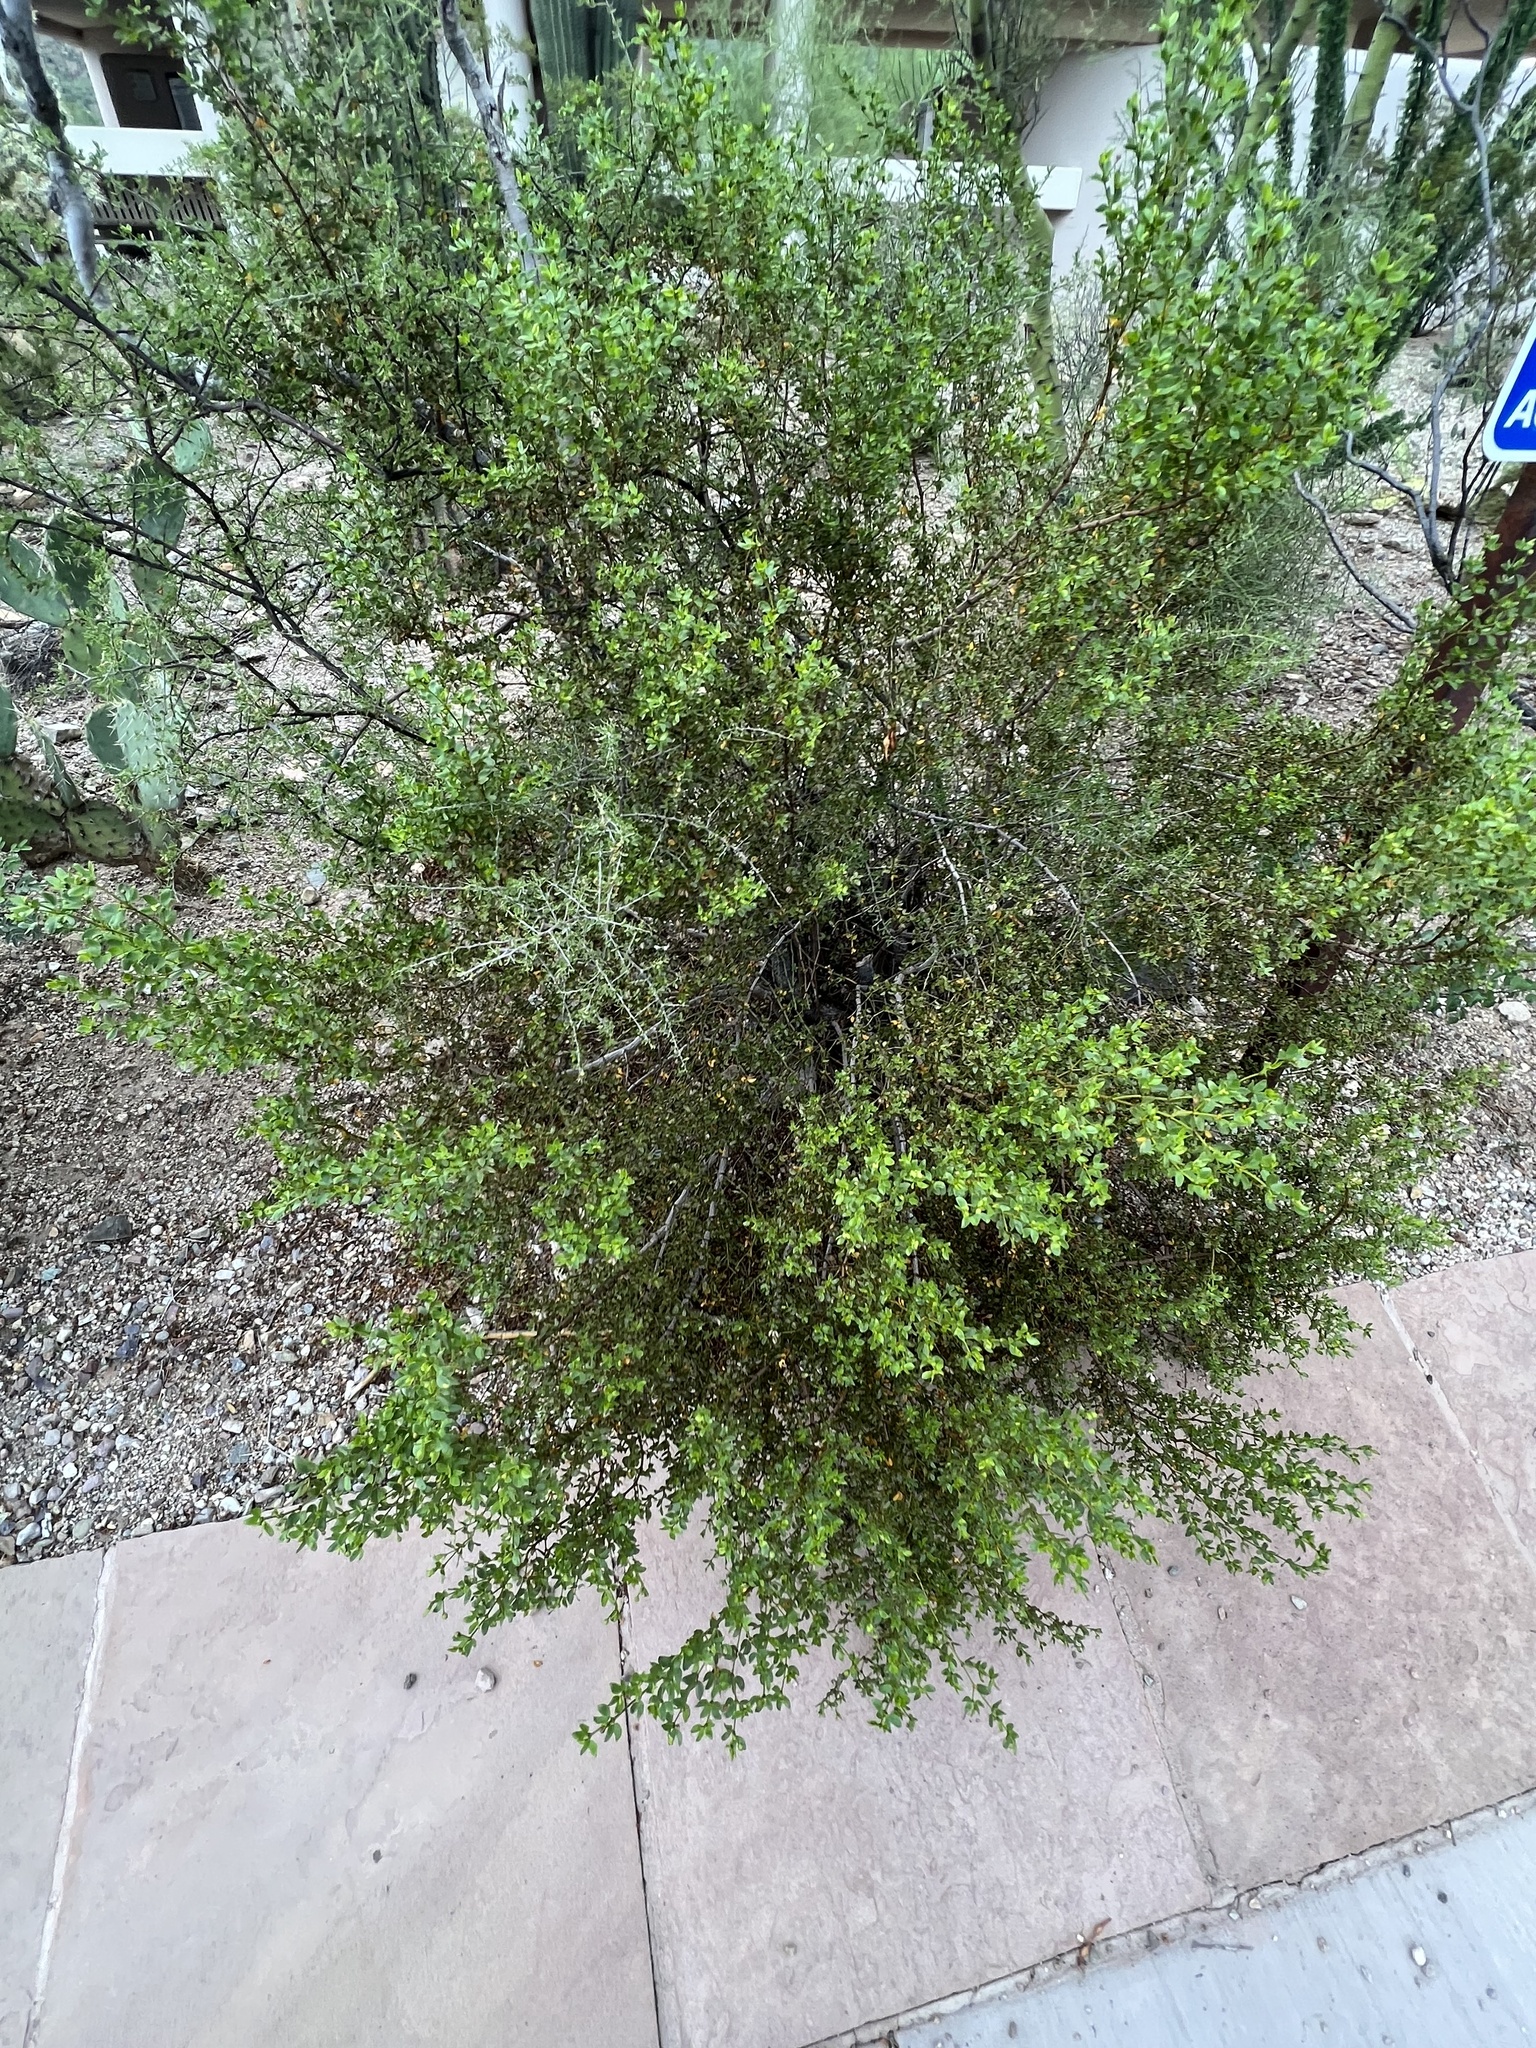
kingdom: Plantae
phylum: Tracheophyta
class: Magnoliopsida
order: Zygophyllales
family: Zygophyllaceae
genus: Larrea
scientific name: Larrea tridentata
